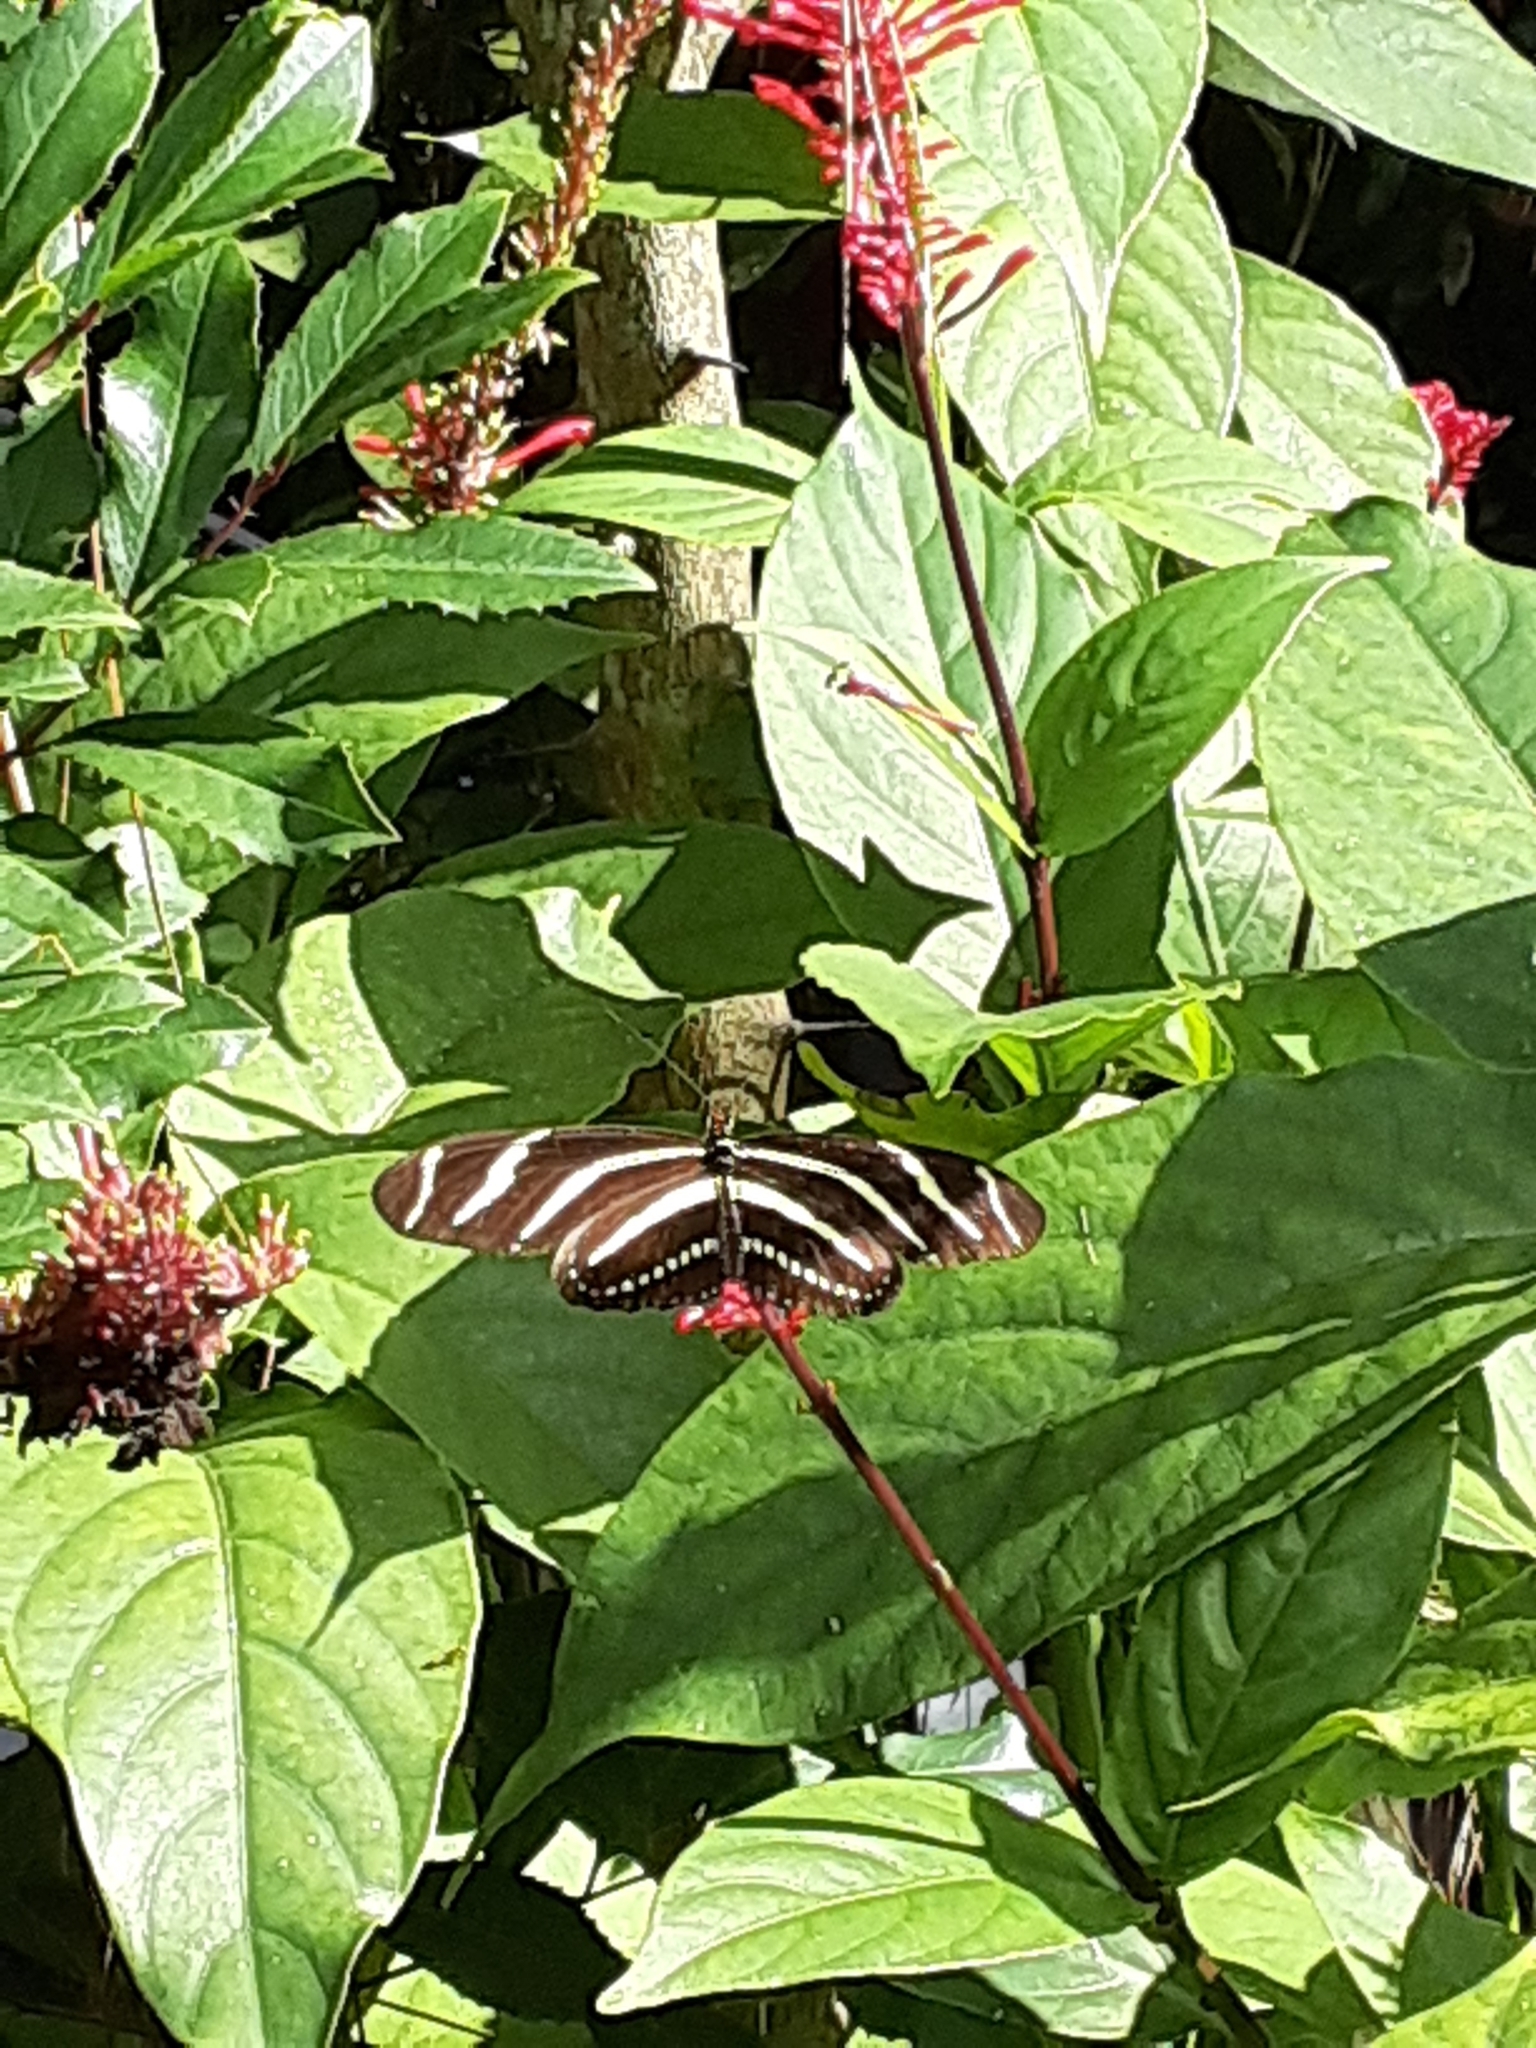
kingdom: Animalia
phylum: Arthropoda
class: Insecta
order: Lepidoptera
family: Nymphalidae
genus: Heliconius
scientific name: Heliconius charithonia
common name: Zebra long wing
